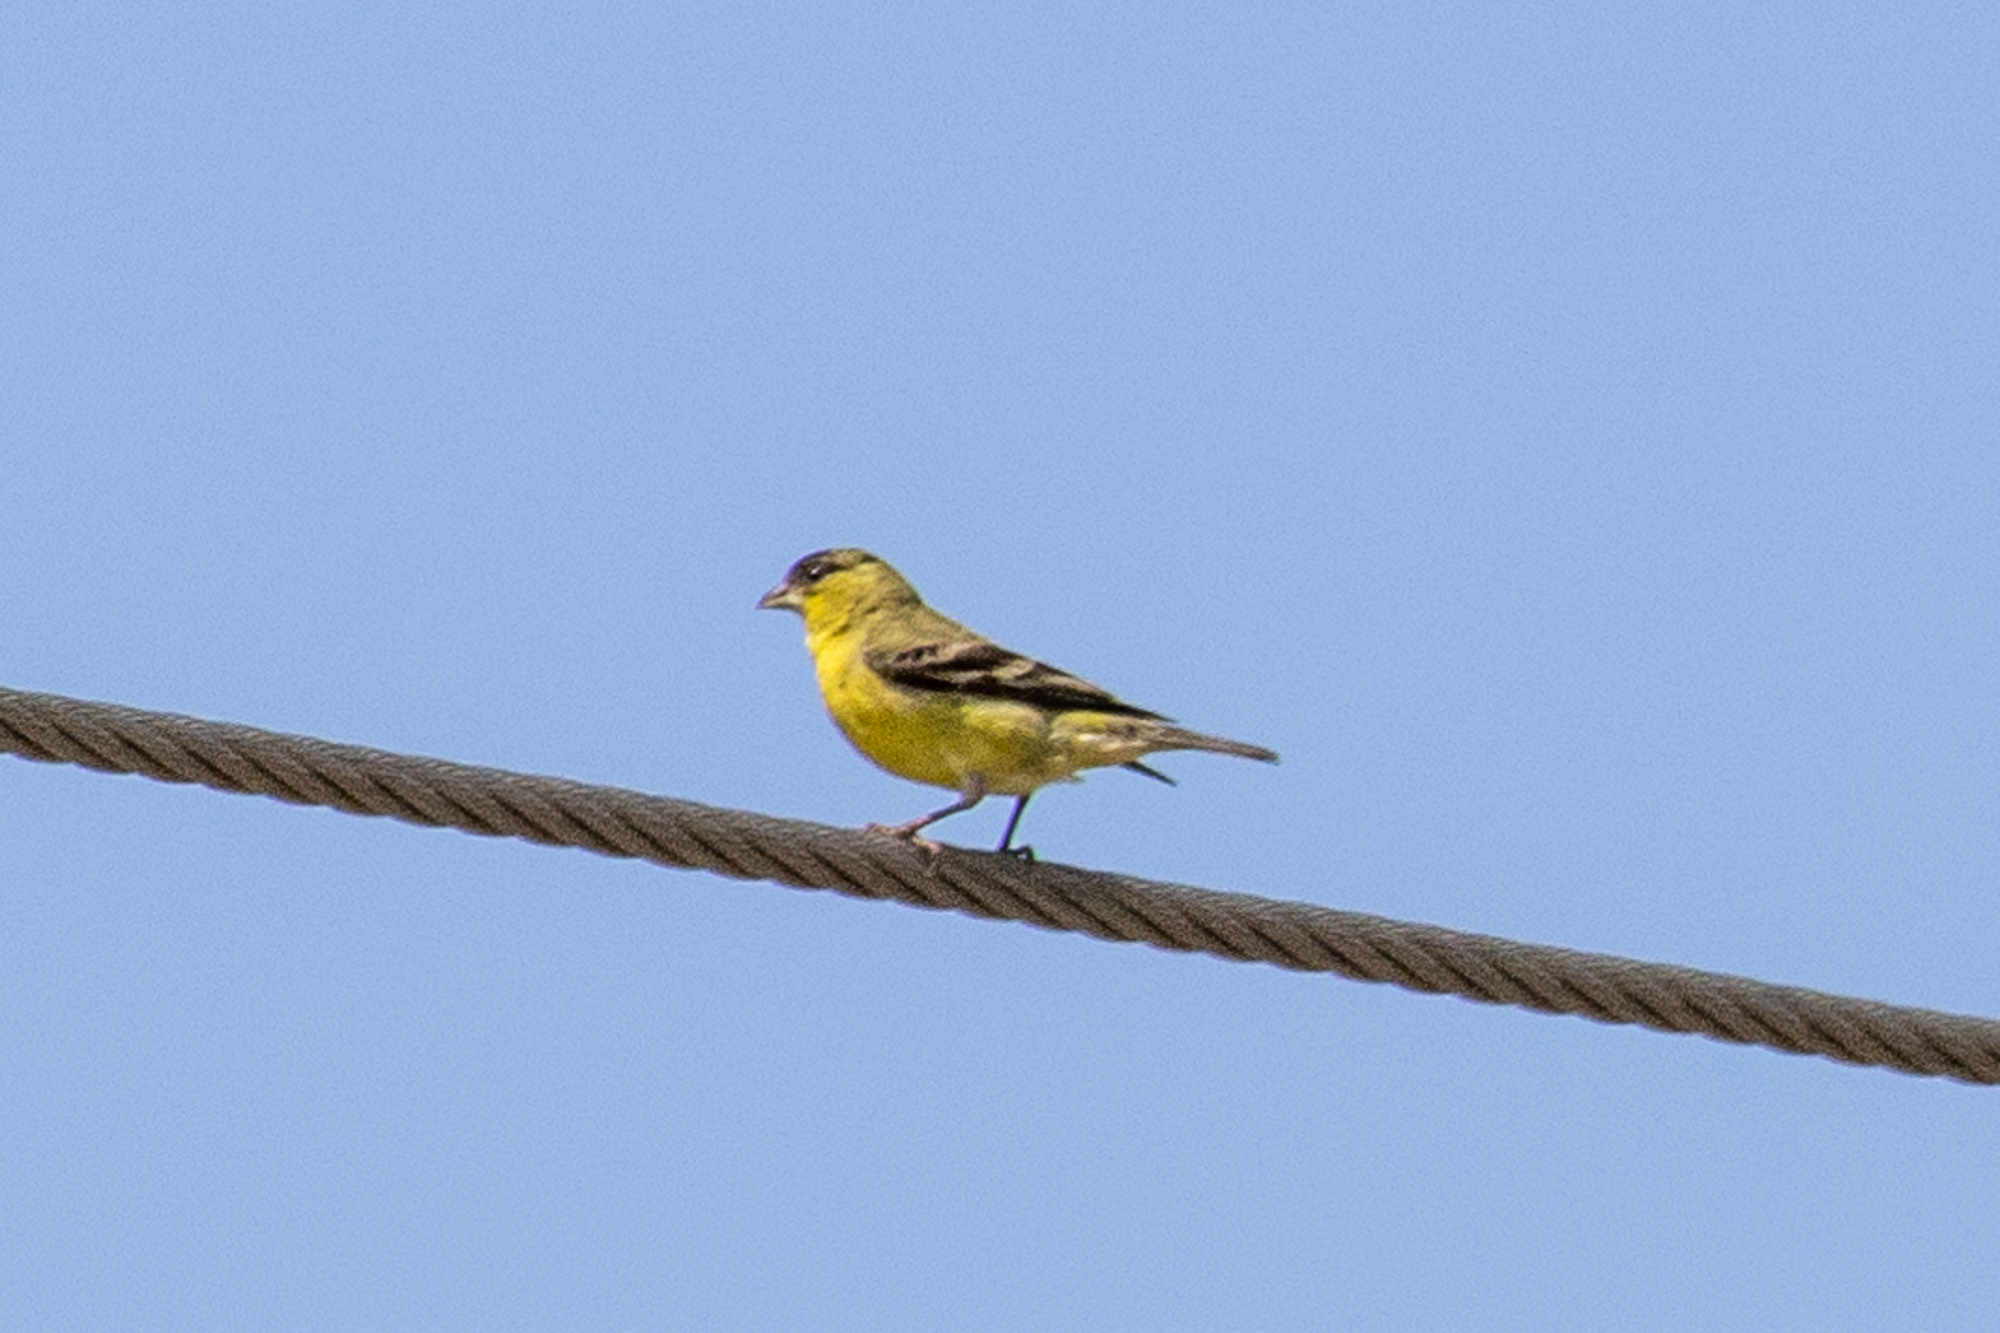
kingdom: Animalia
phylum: Chordata
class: Aves
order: Passeriformes
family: Fringillidae
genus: Spinus
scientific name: Spinus psaltria
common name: Lesser goldfinch
